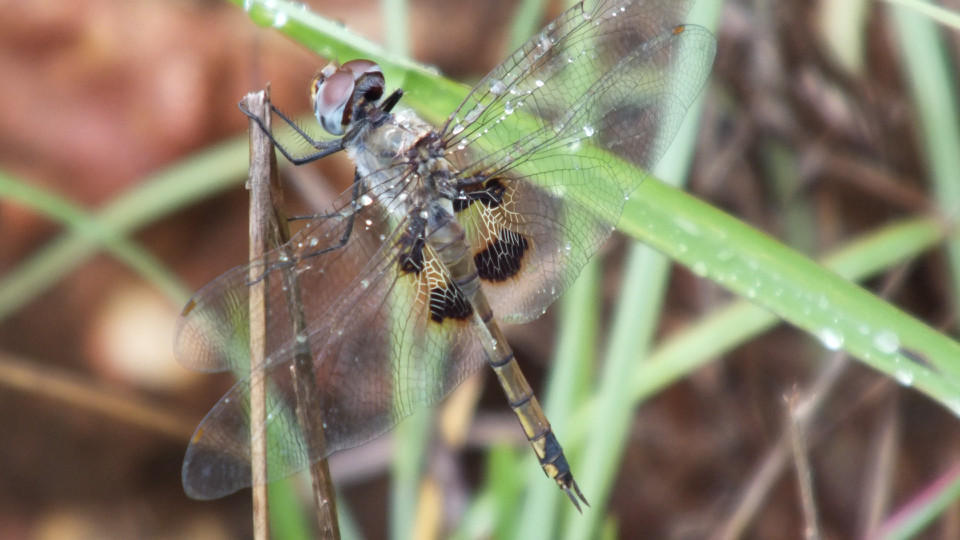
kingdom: Animalia
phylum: Arthropoda
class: Insecta
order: Odonata
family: Libellulidae
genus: Tramea
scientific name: Tramea basilaris
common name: Keyhole glider
